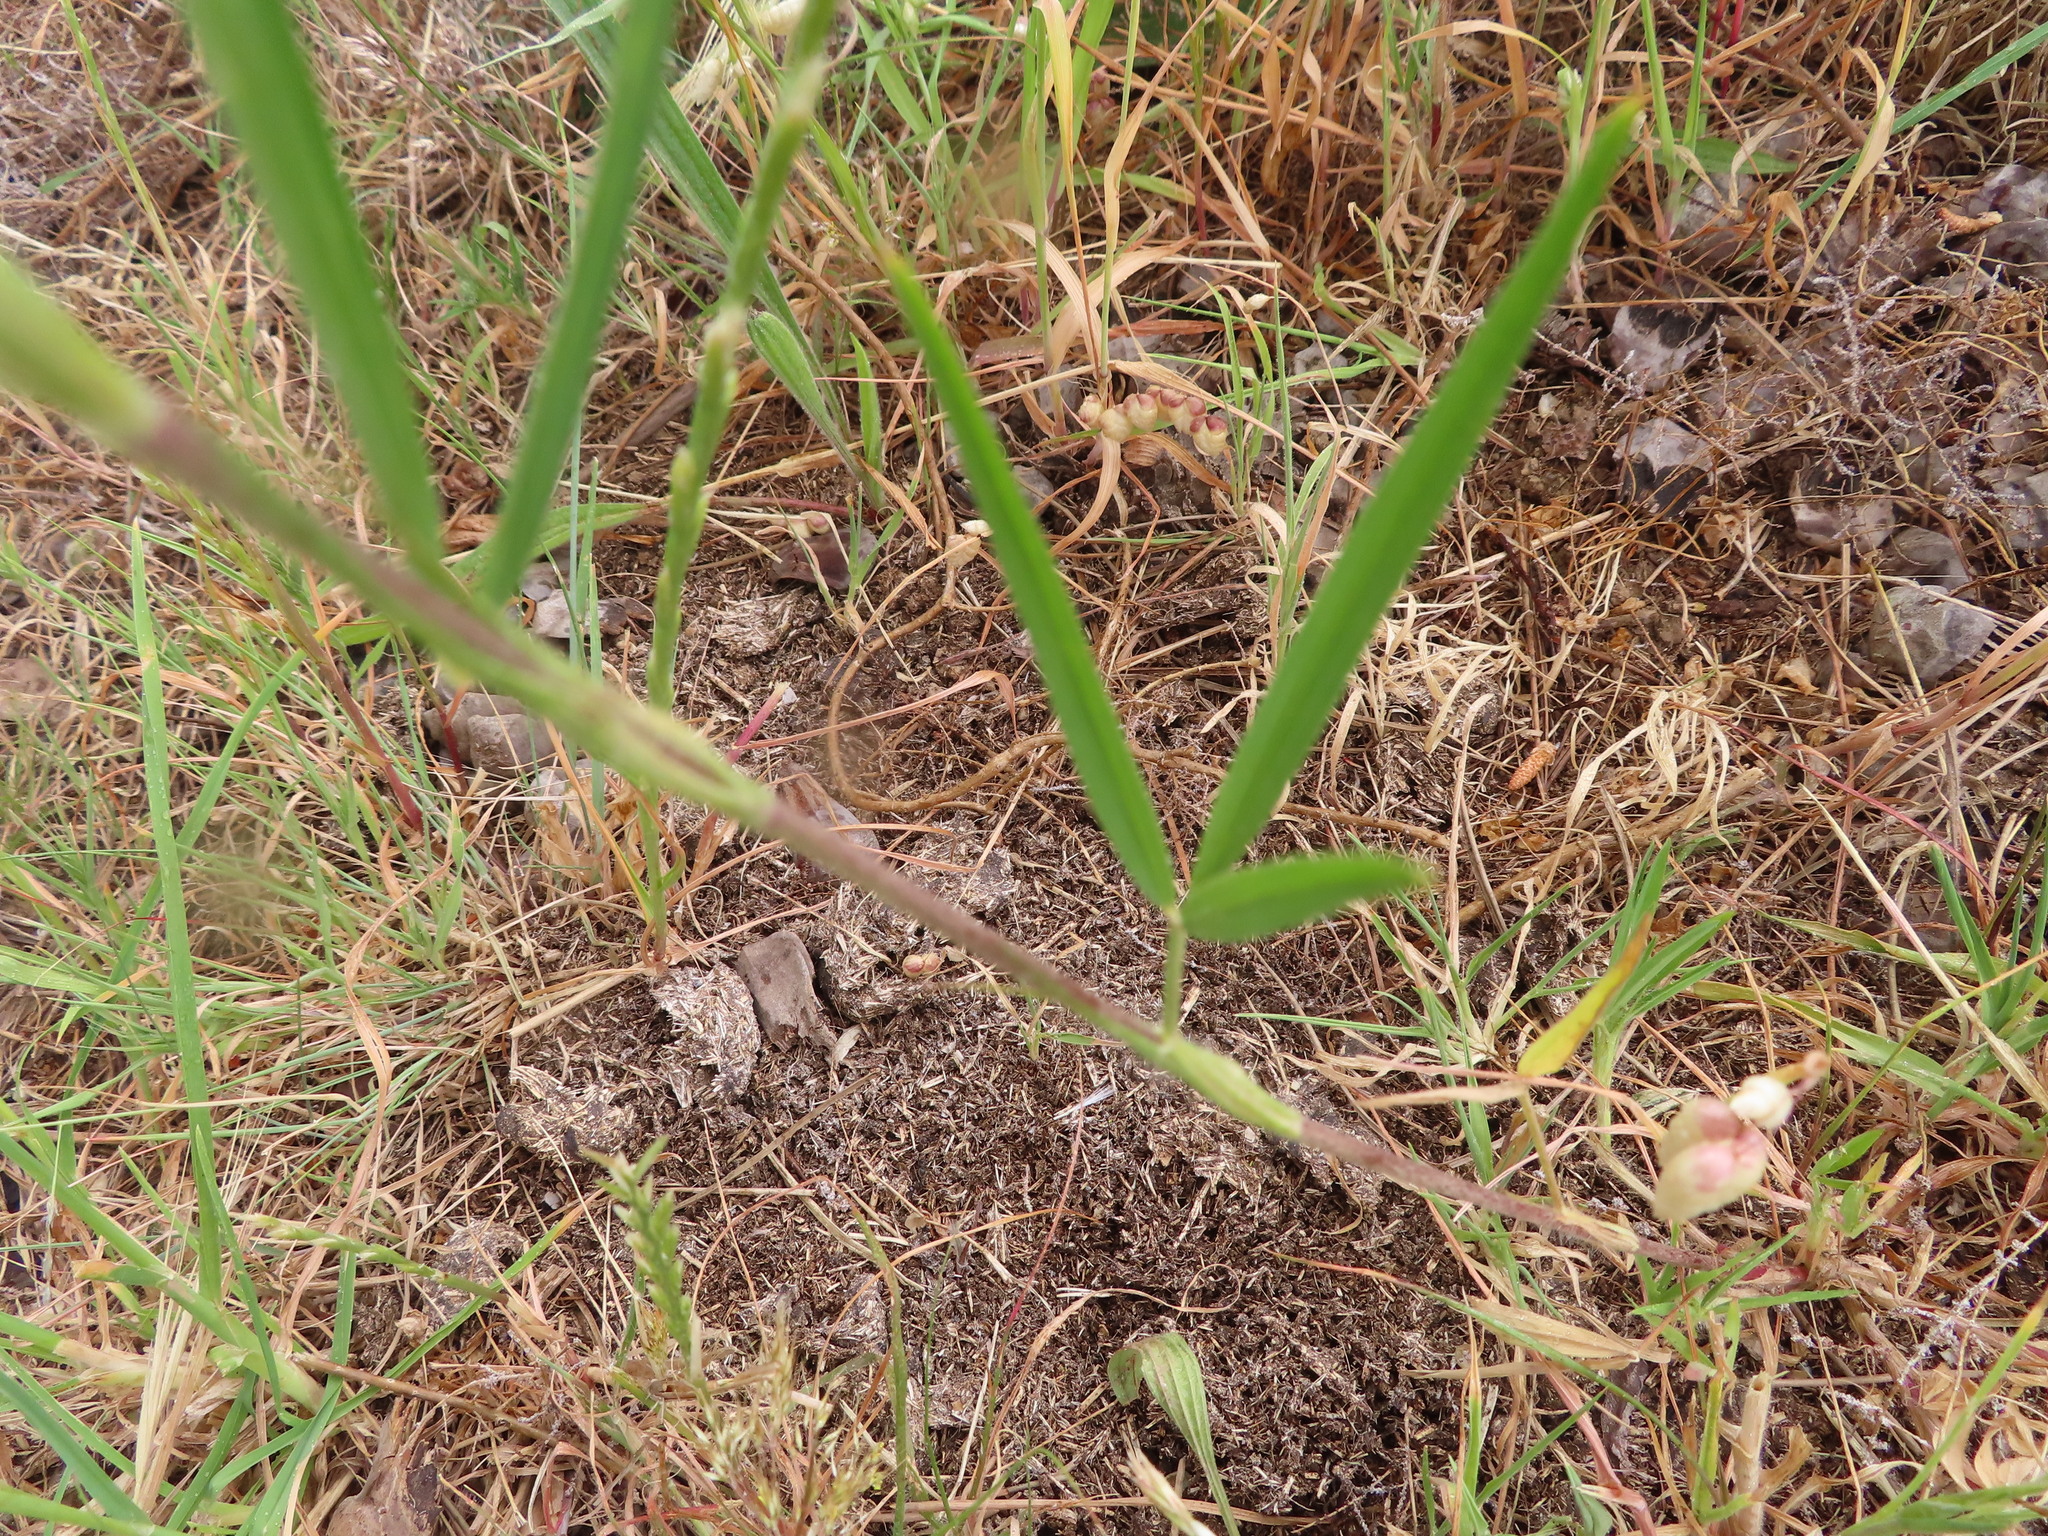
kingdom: Plantae
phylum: Tracheophyta
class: Magnoliopsida
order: Fabales
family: Fabaceae
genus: Trifolium
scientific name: Trifolium angustifolium
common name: Narrow clover
